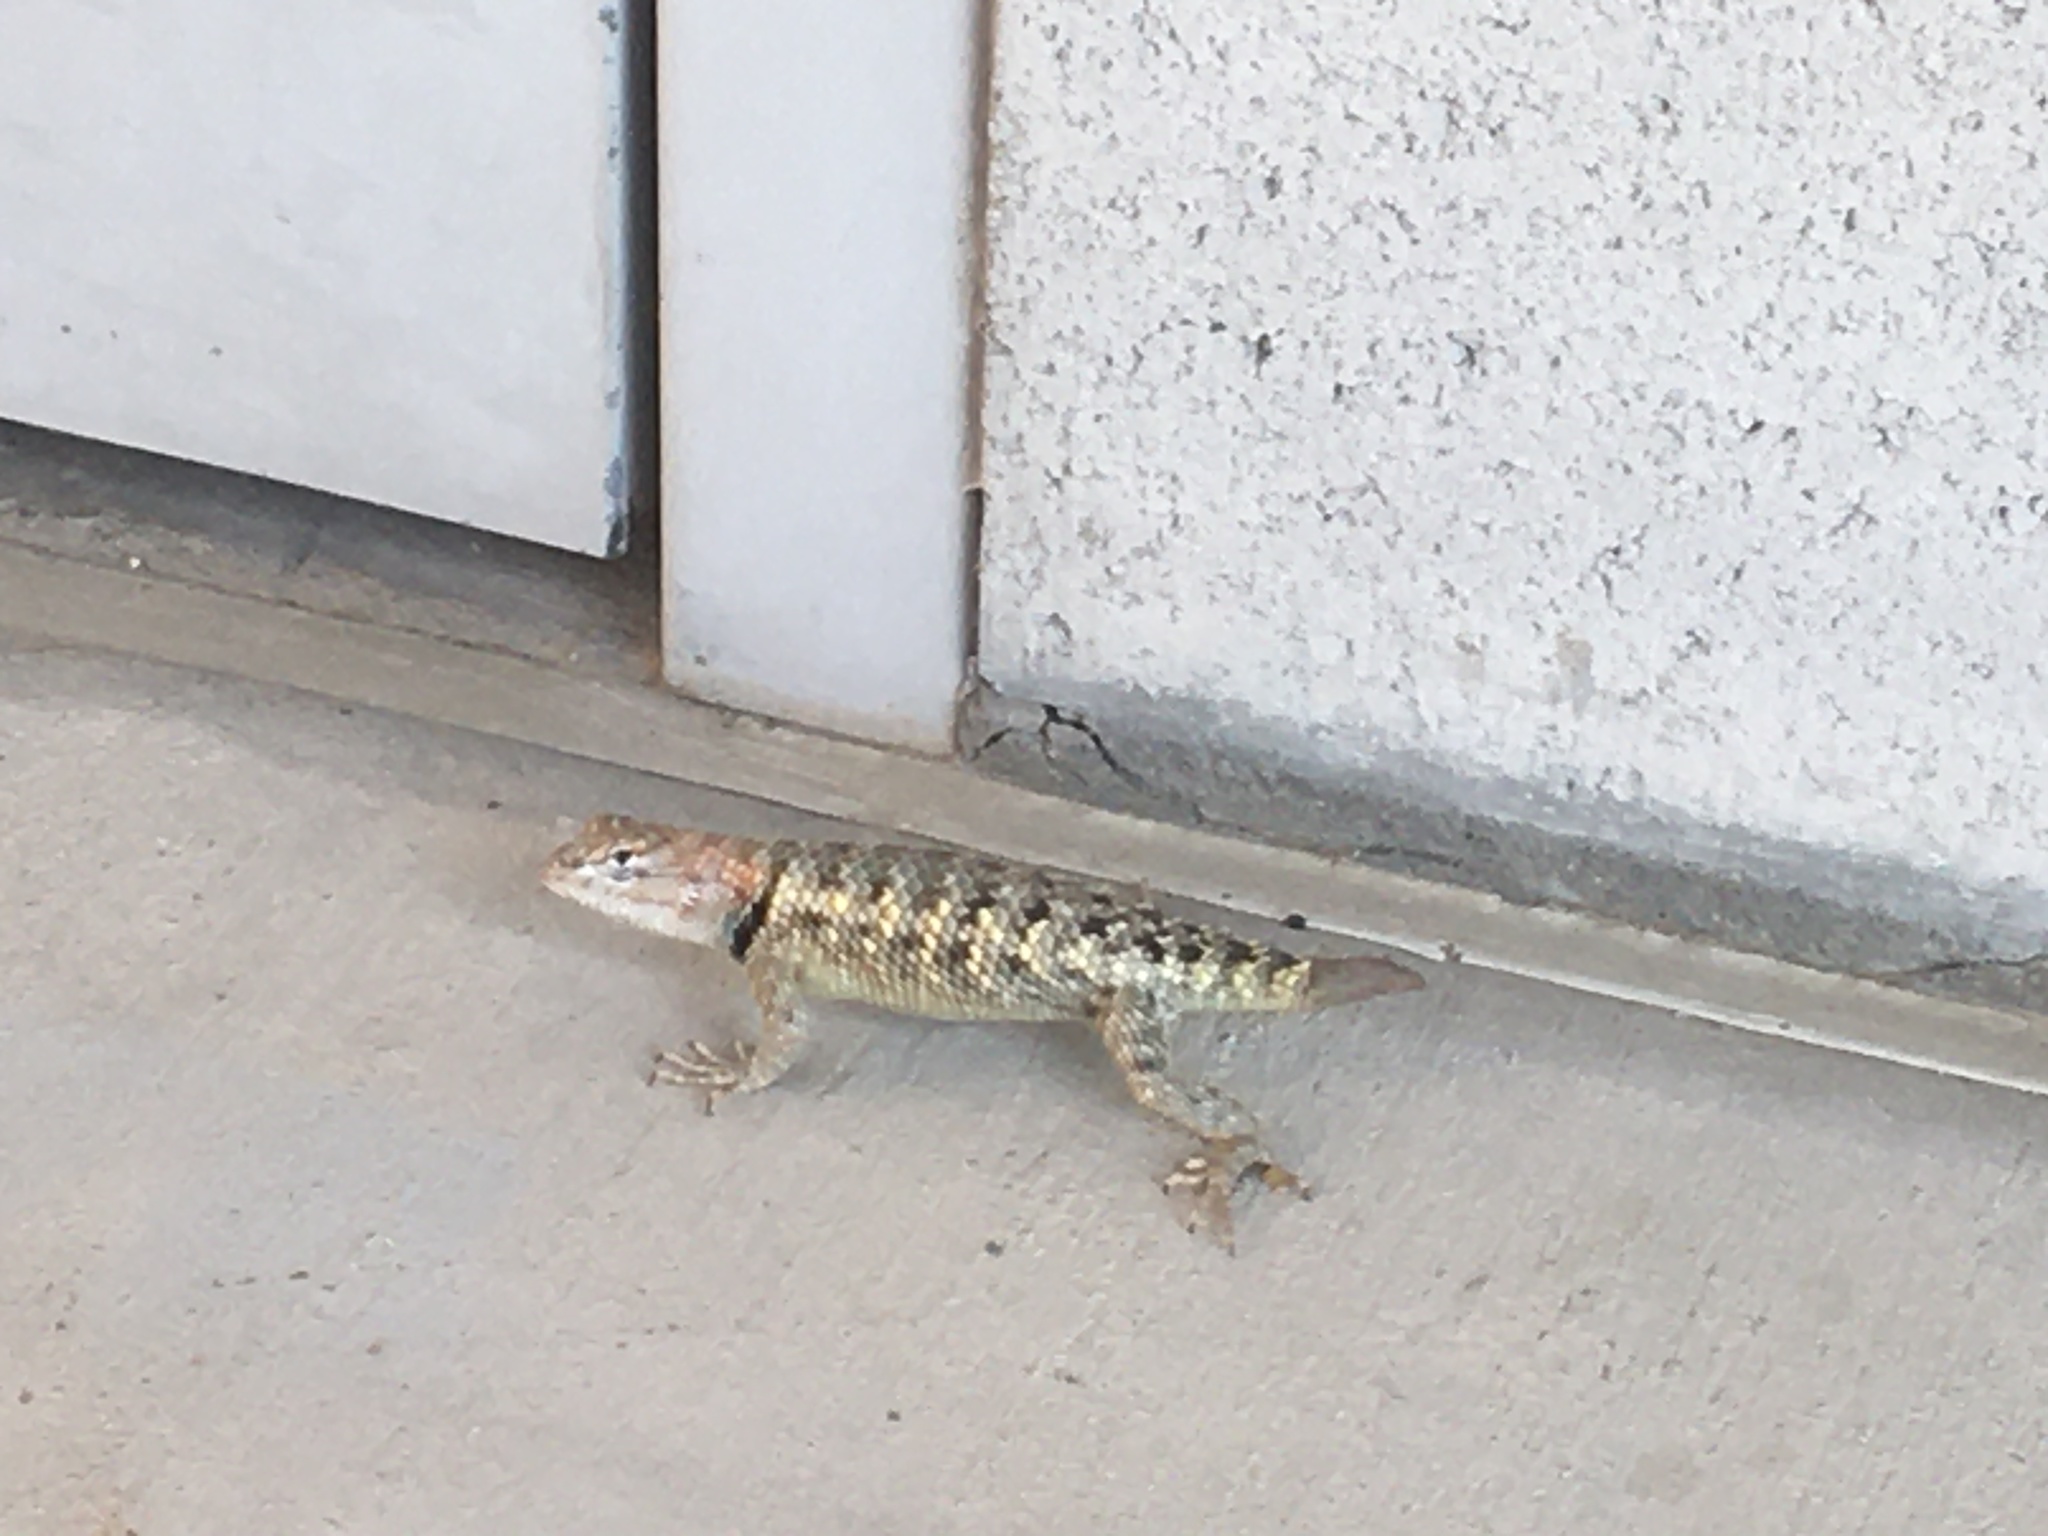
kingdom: Animalia
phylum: Chordata
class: Squamata
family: Phrynosomatidae
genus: Sceloporus
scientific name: Sceloporus uniformis
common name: Yellow-backed spiny lizard
